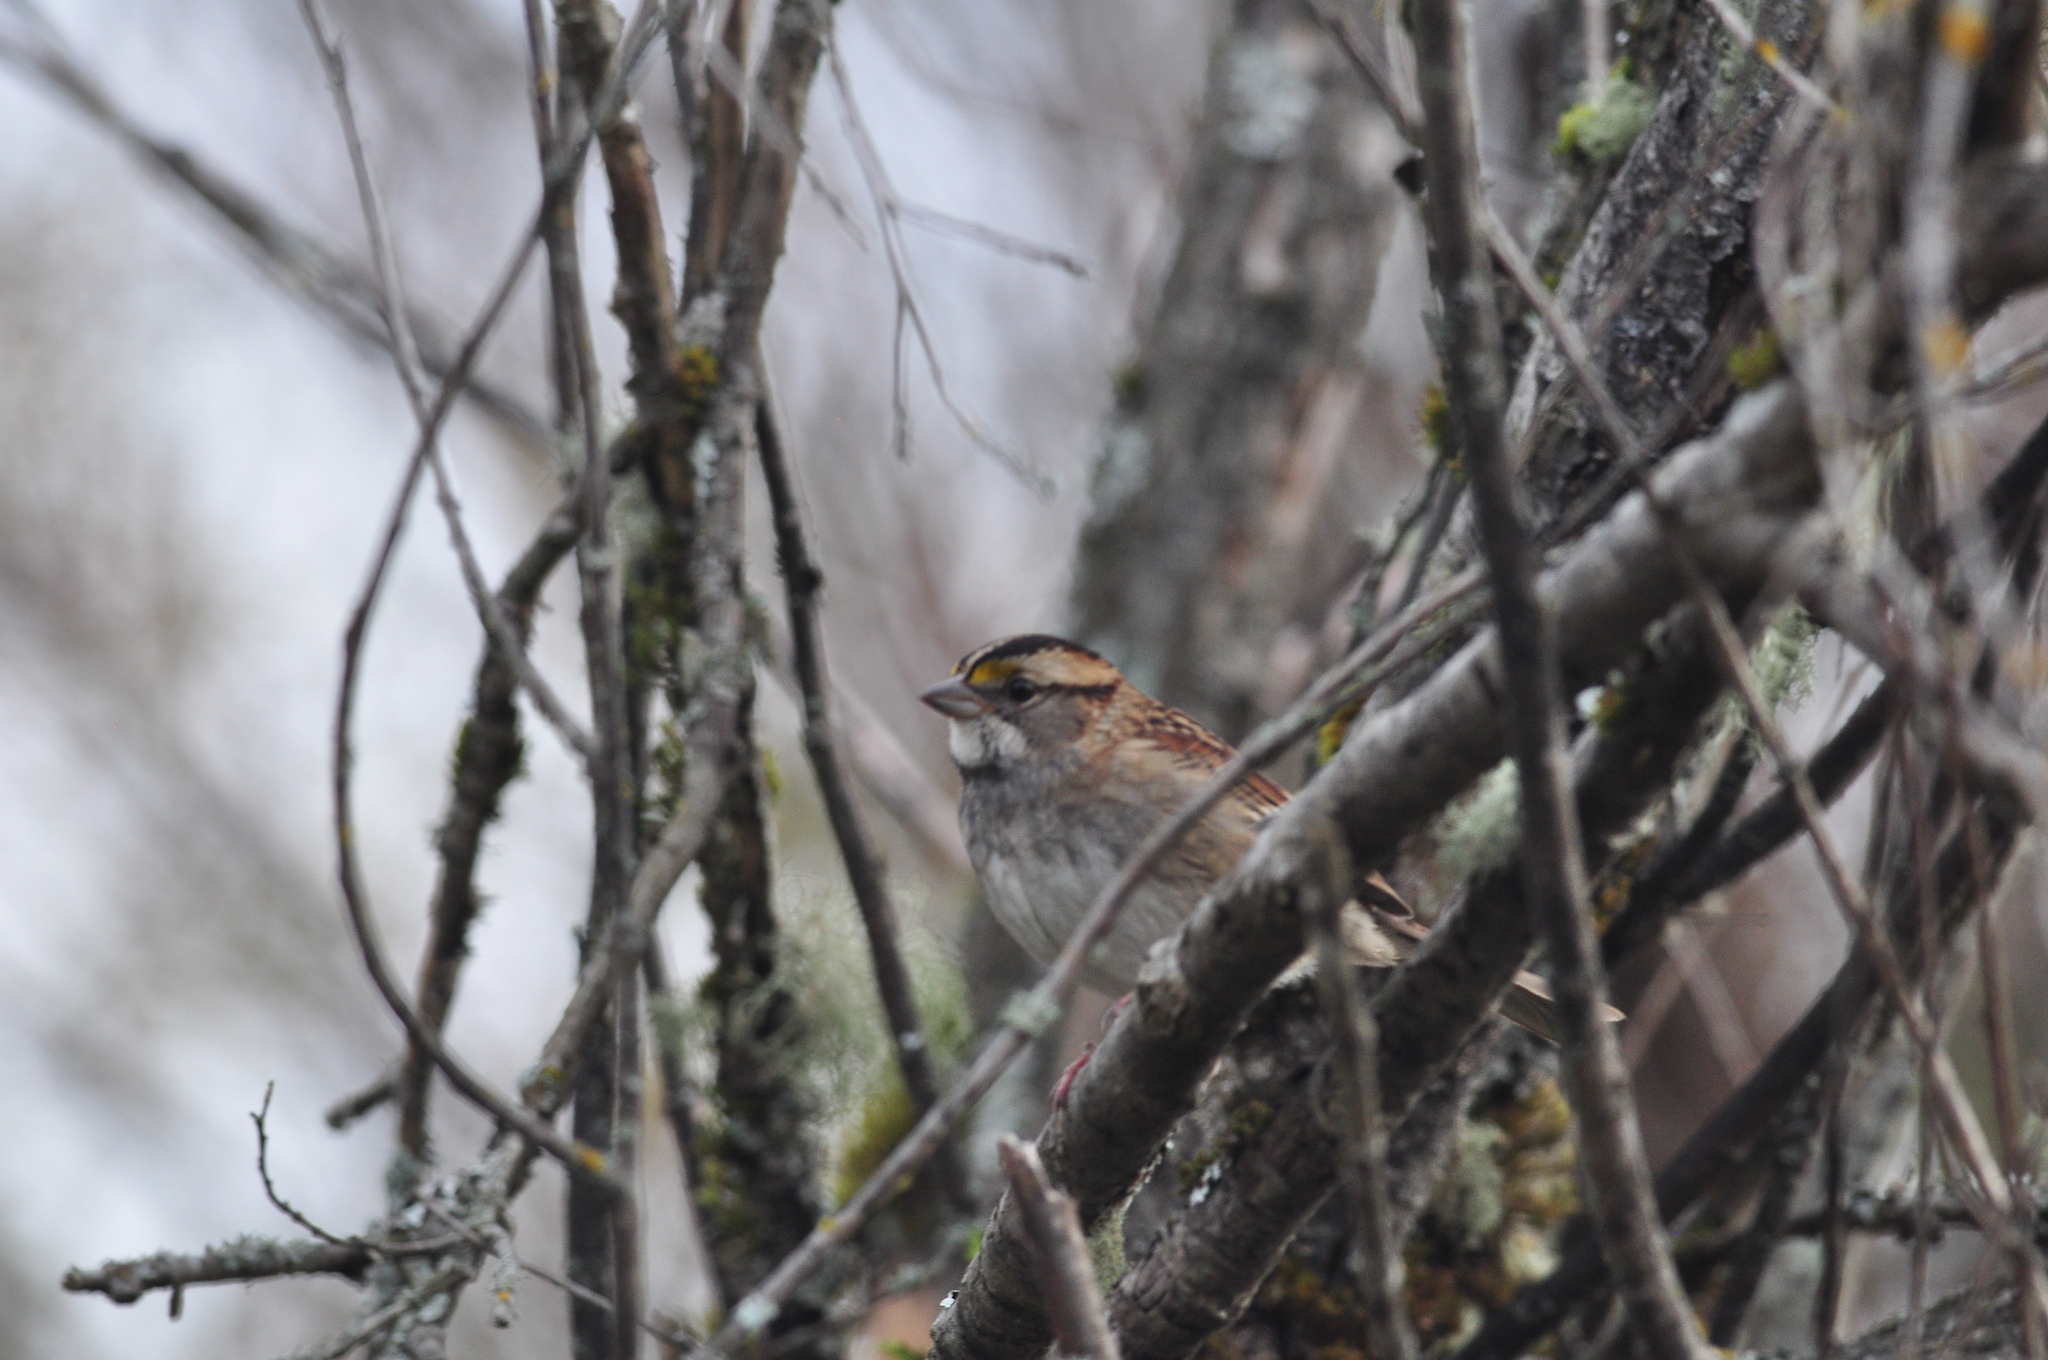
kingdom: Animalia
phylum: Chordata
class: Aves
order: Passeriformes
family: Passerellidae
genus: Zonotrichia
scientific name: Zonotrichia albicollis
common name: White-throated sparrow
